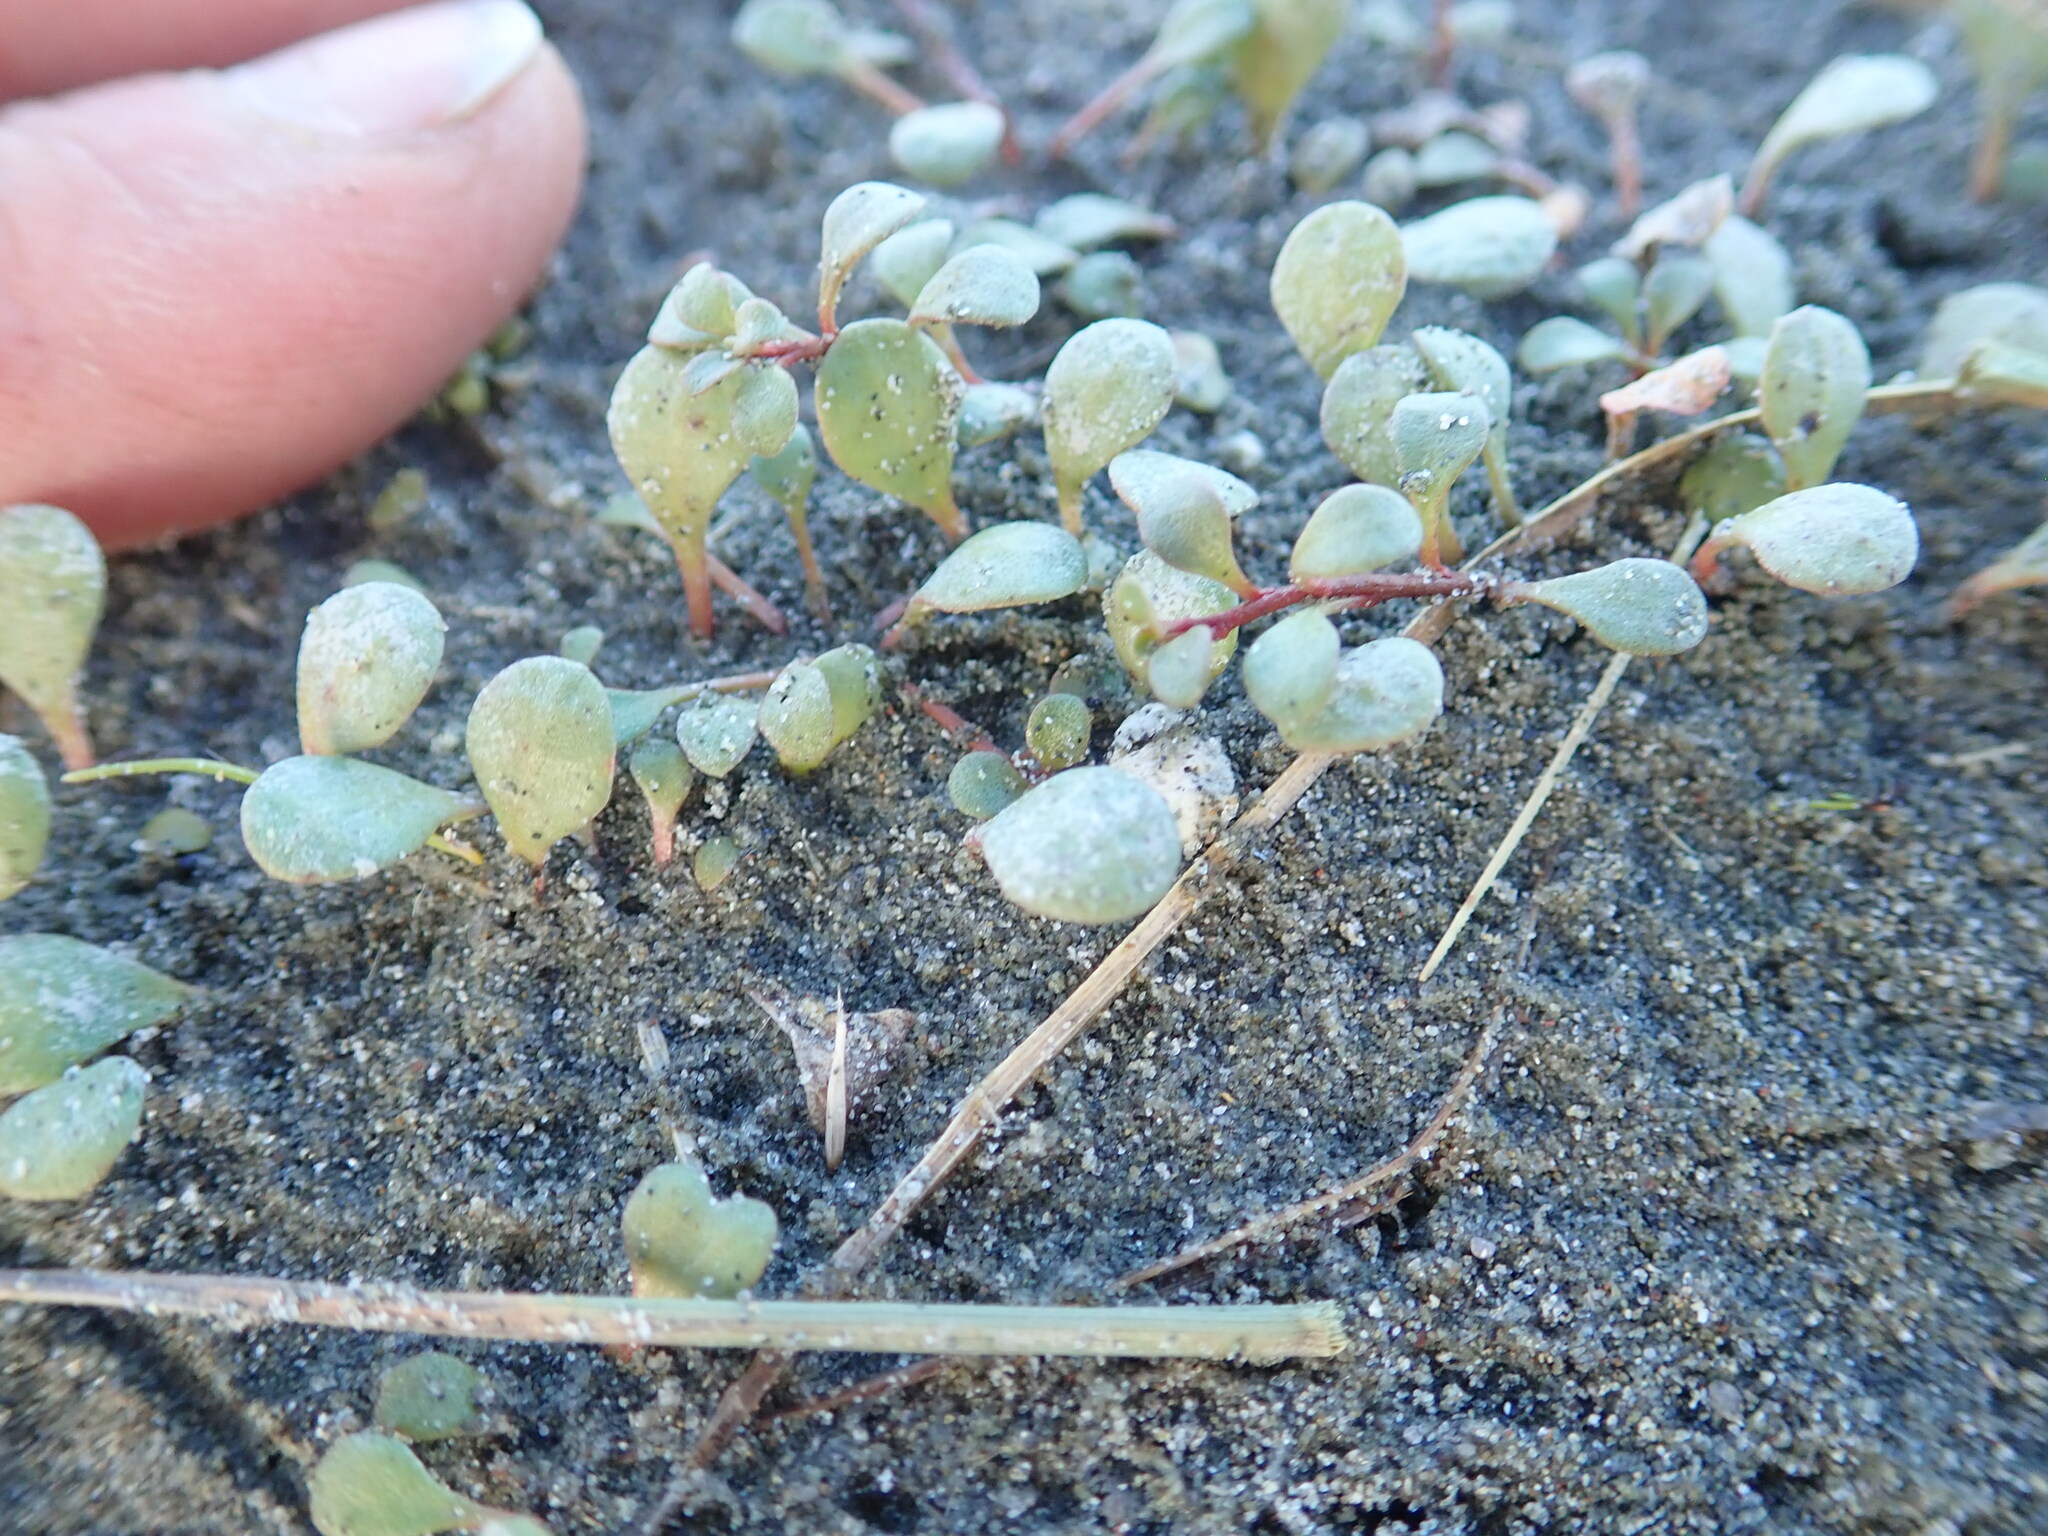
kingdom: Plantae
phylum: Tracheophyta
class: Magnoliopsida
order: Ericales
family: Primulaceae
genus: Samolus
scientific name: Samolus repens
